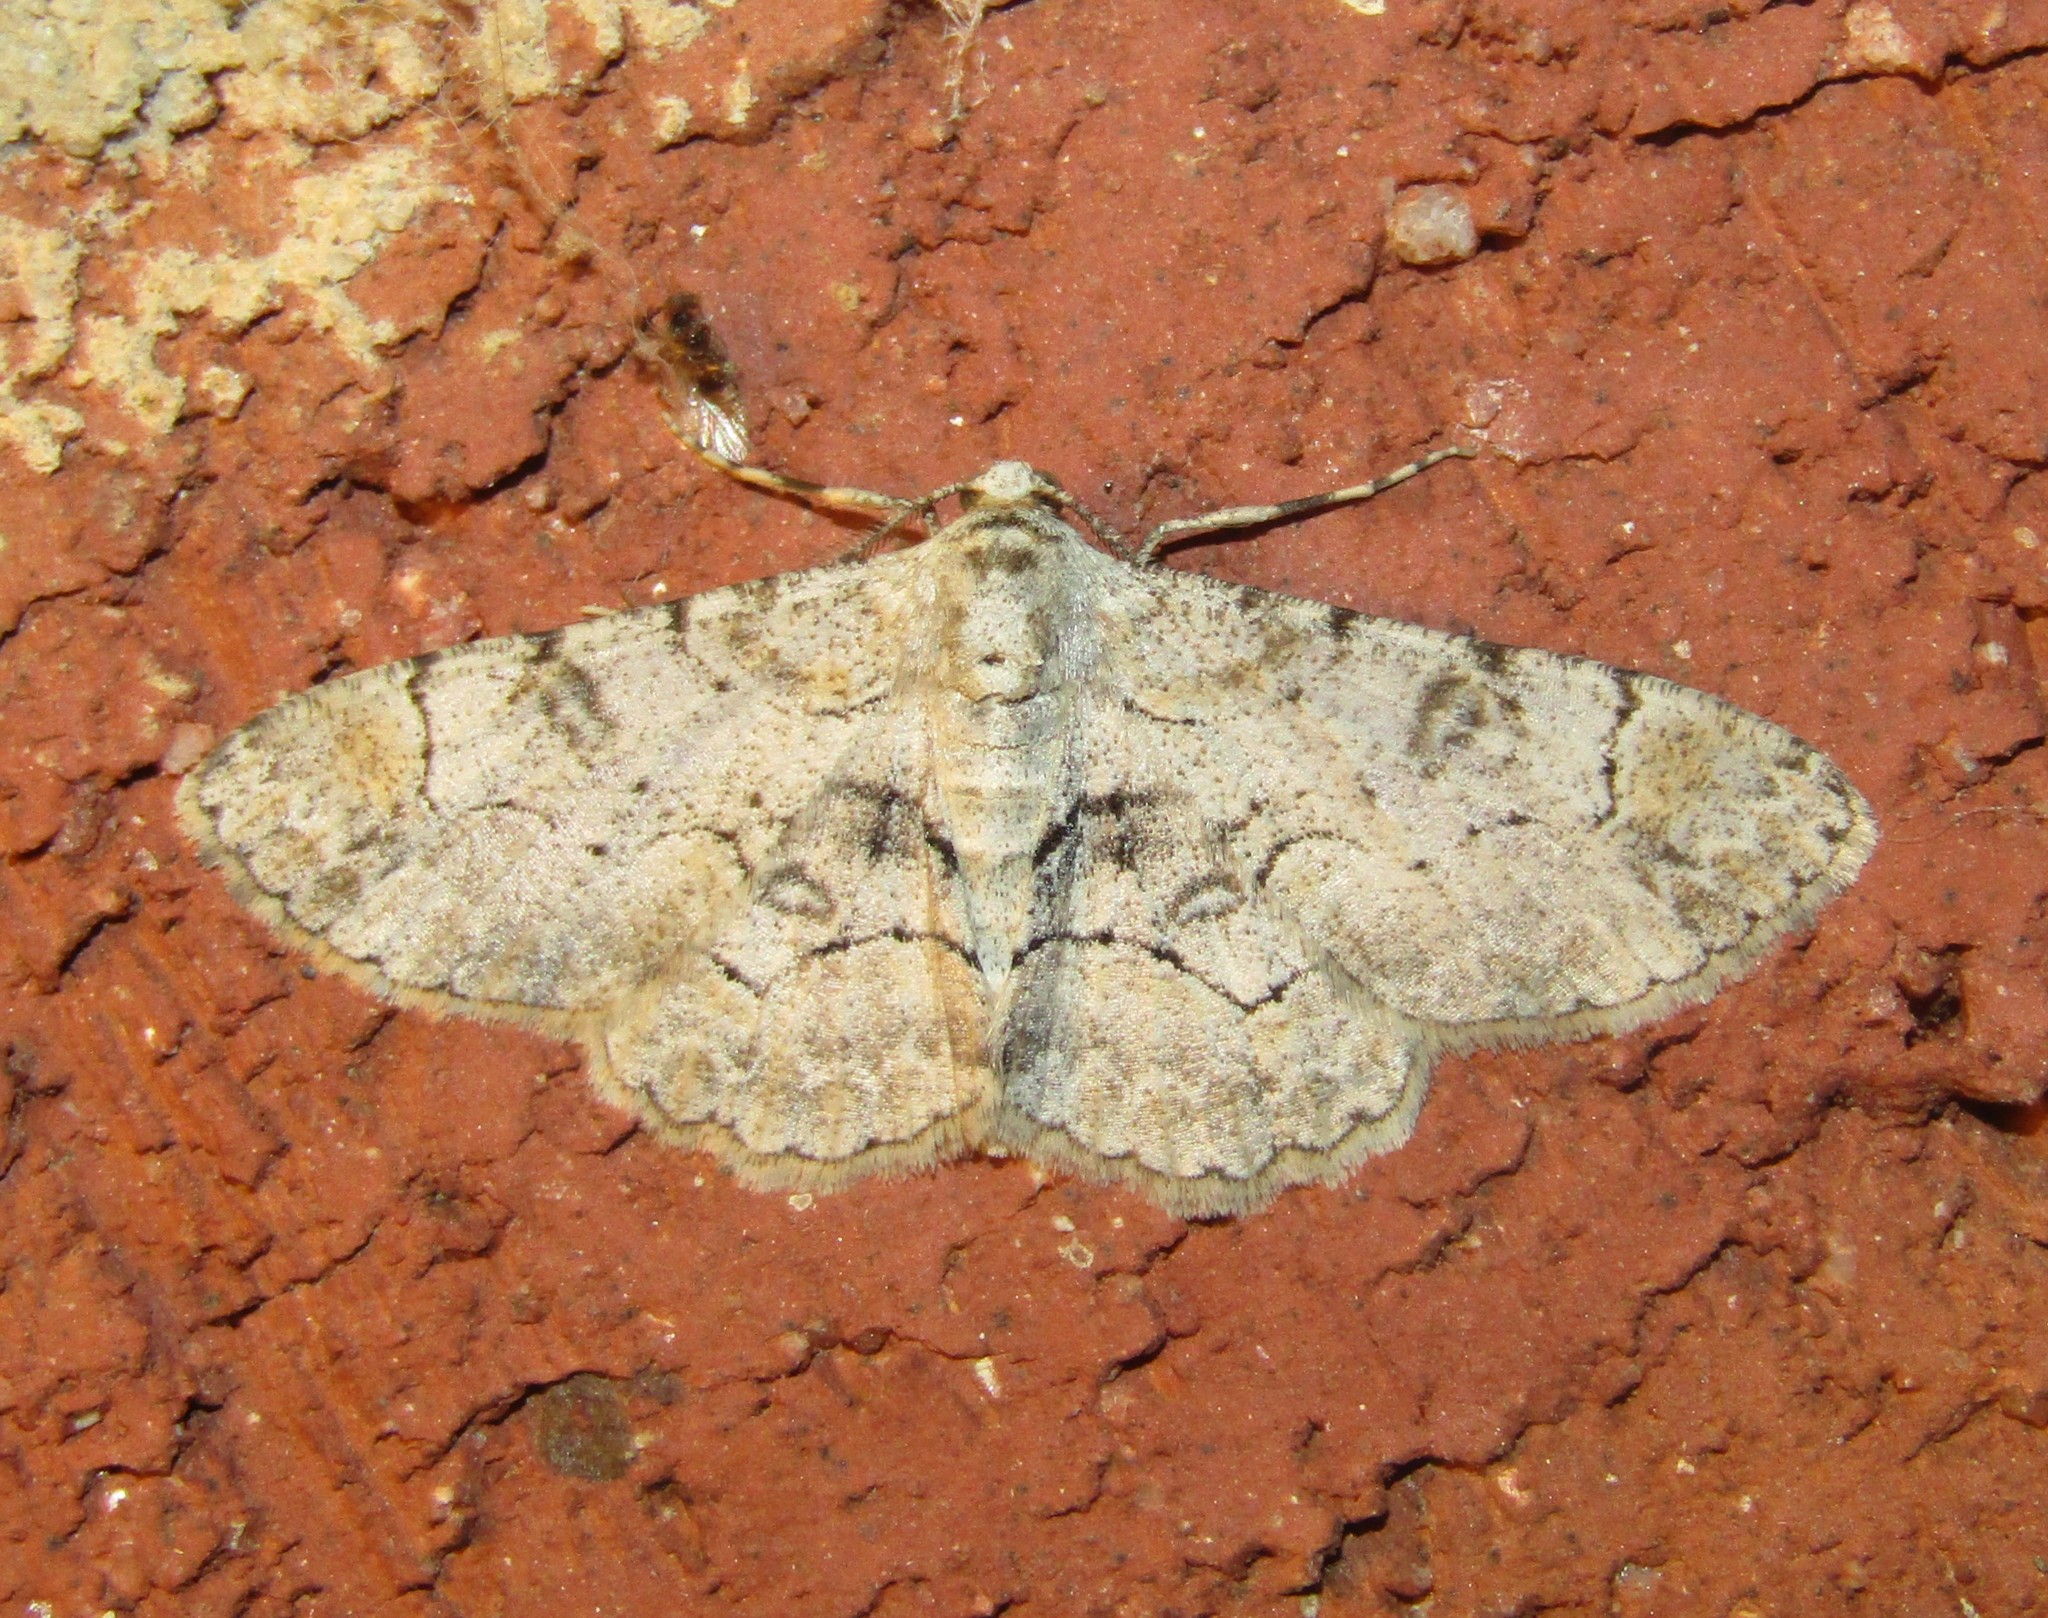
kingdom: Animalia
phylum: Arthropoda
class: Insecta
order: Lepidoptera
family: Geometridae
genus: Iridopsis
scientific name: Iridopsis larvaria
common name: Bent-line gray
